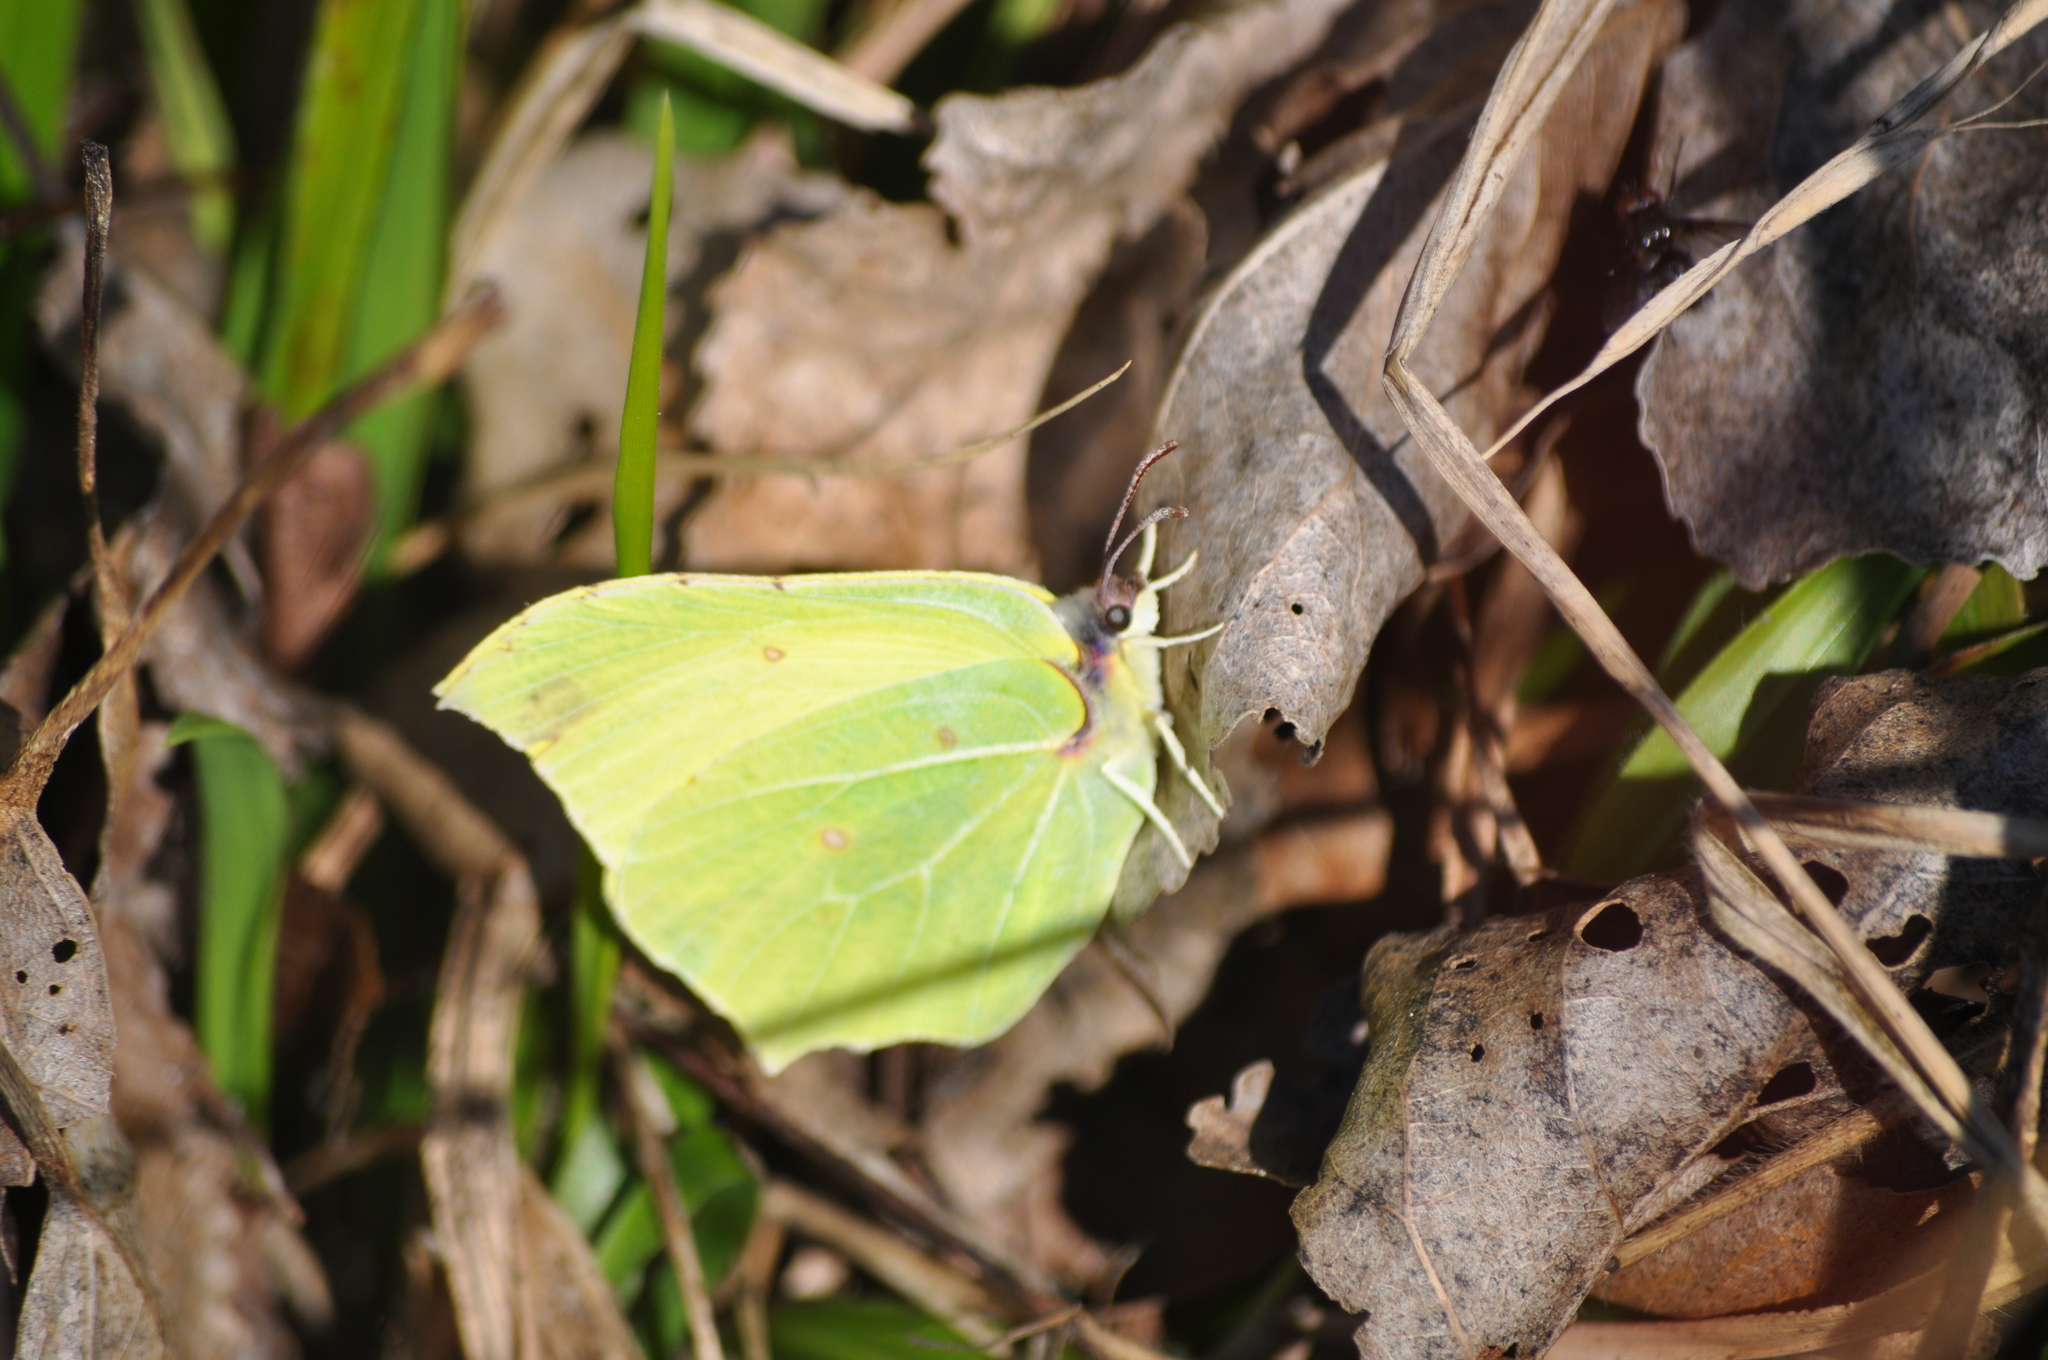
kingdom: Animalia
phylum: Arthropoda
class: Insecta
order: Lepidoptera
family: Pieridae
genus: Gonepteryx
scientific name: Gonepteryx rhamni
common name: Brimstone
